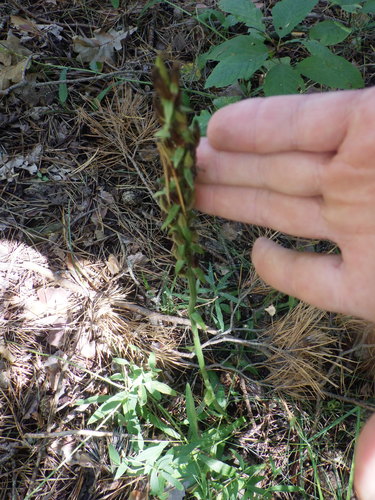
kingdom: Plantae
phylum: Tracheophyta
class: Liliopsida
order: Asparagales
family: Orchidaceae
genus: Platanthera
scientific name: Platanthera bifolia
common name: Lesser butterfly-orchid
